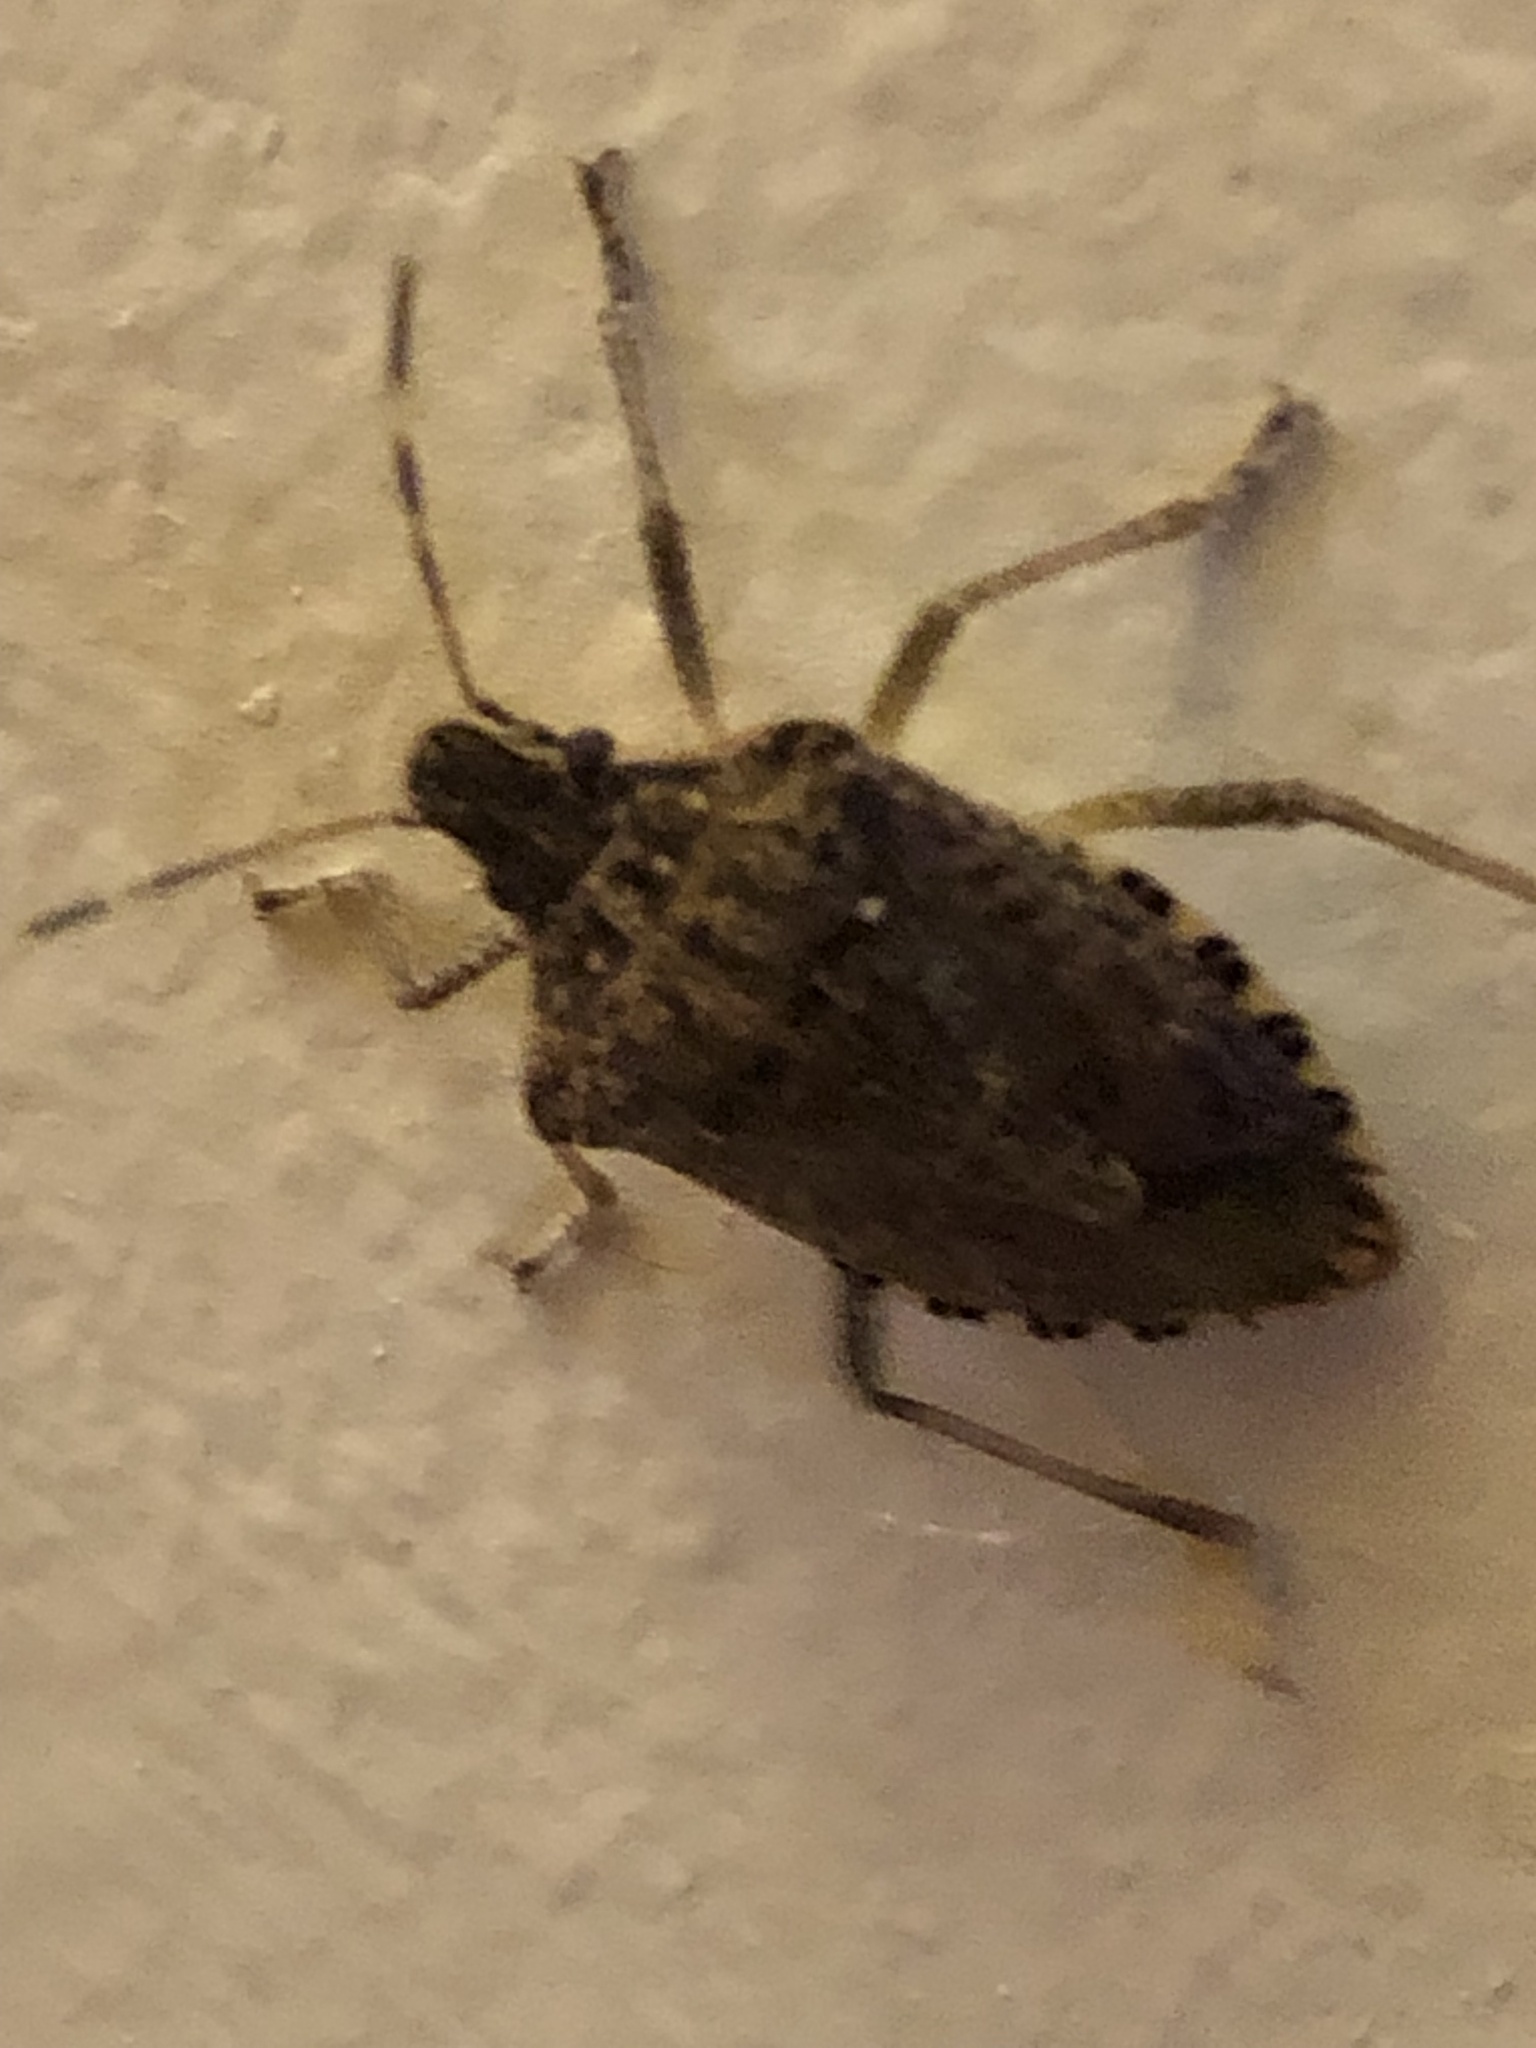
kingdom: Animalia
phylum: Arthropoda
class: Insecta
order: Hemiptera
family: Pentatomidae
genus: Halyomorpha
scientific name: Halyomorpha halys
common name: Brown marmorated stink bug
